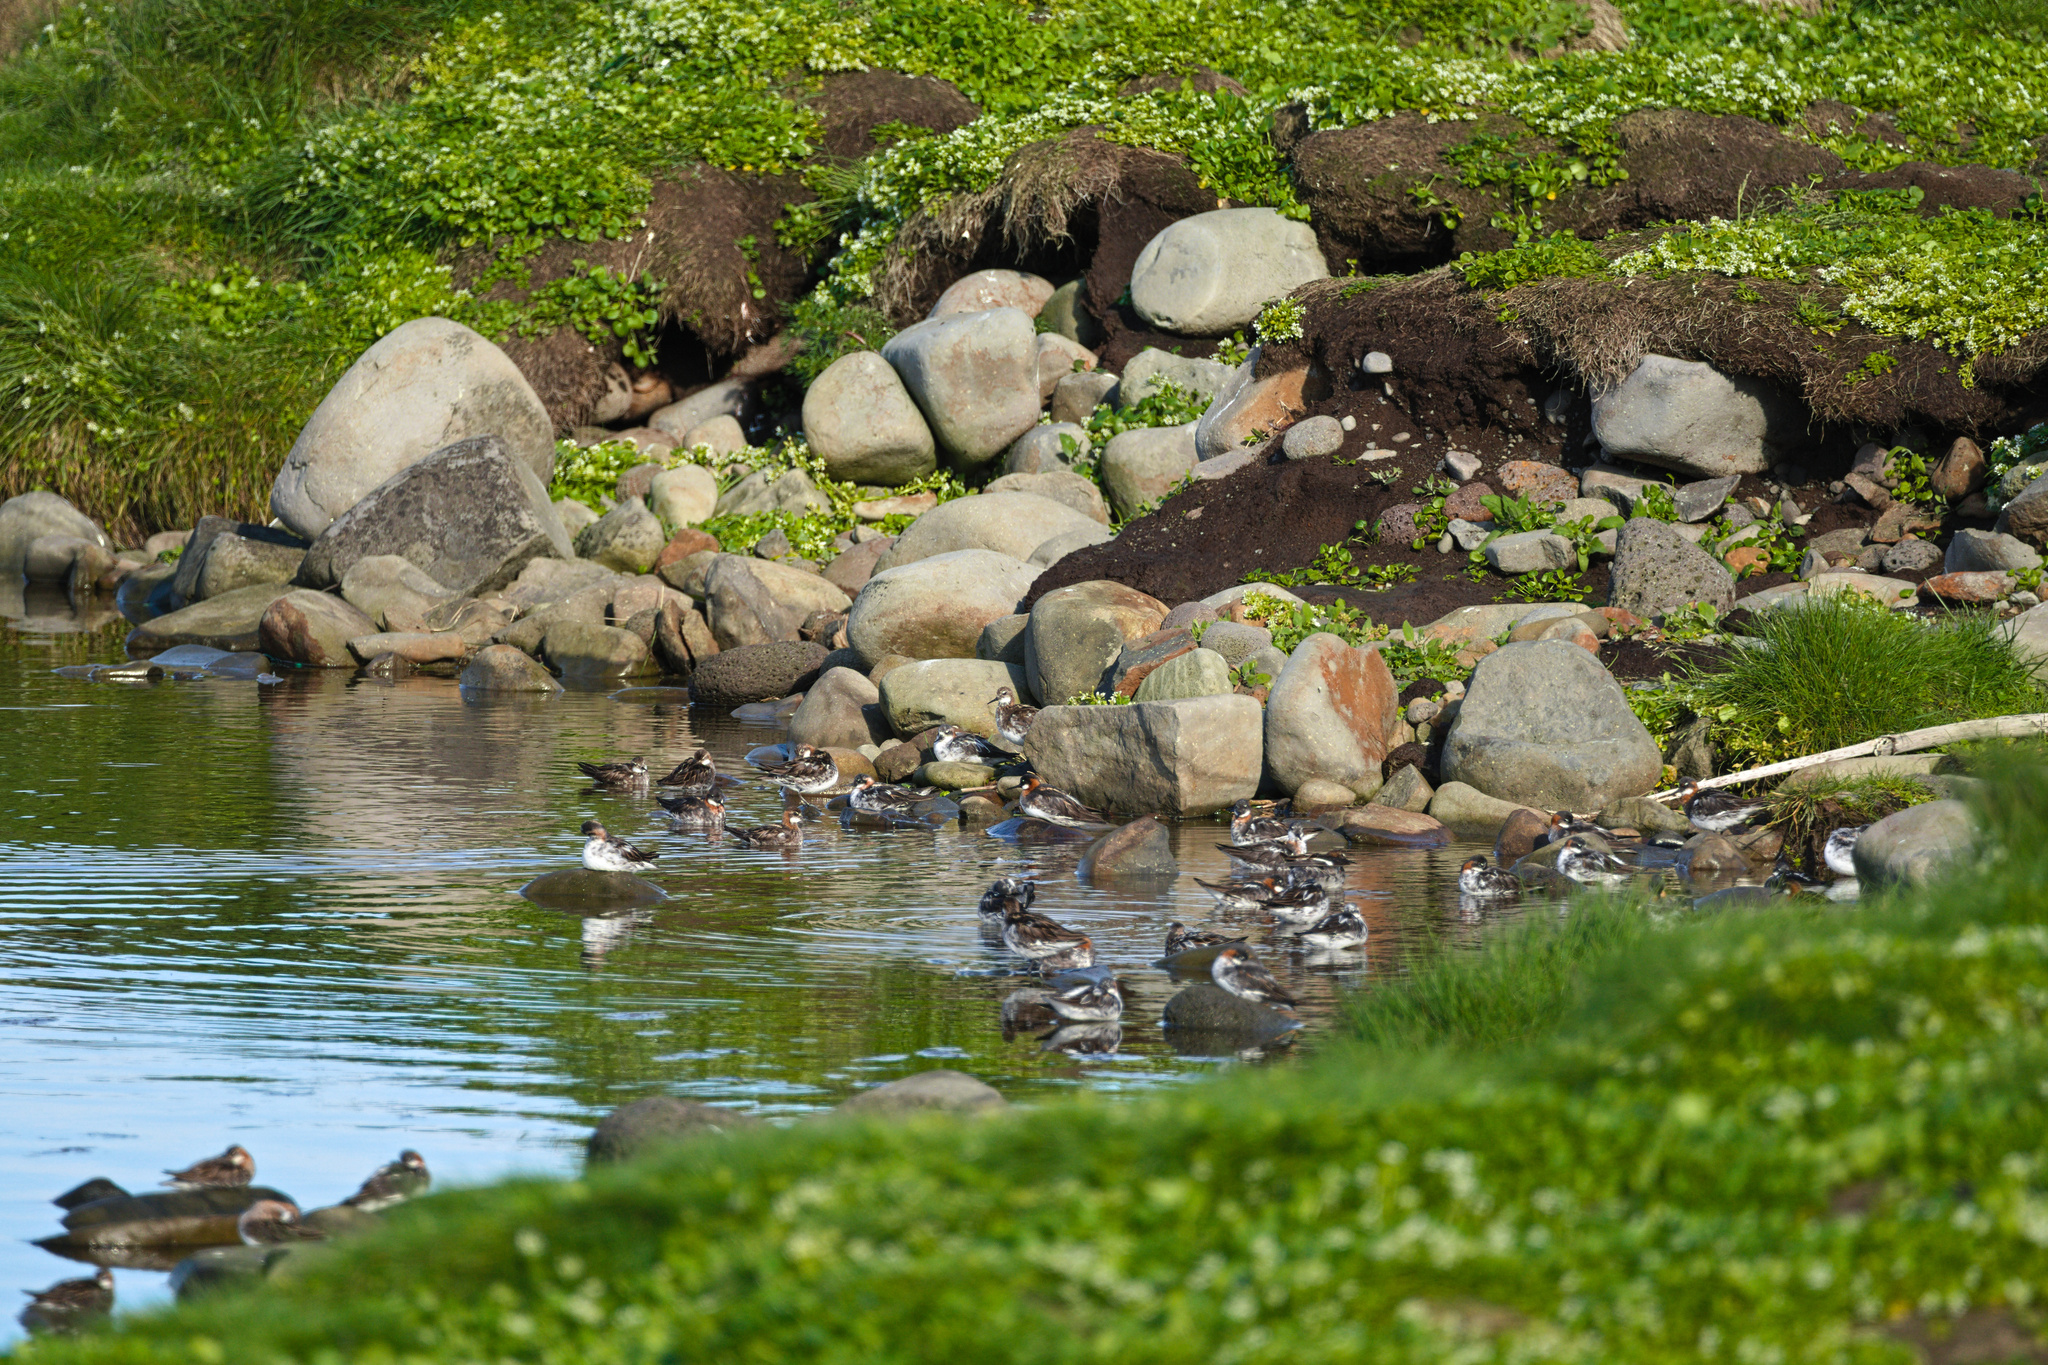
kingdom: Animalia
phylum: Chordata
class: Aves
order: Charadriiformes
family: Scolopacidae
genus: Phalaropus
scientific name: Phalaropus lobatus
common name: Red-necked phalarope
